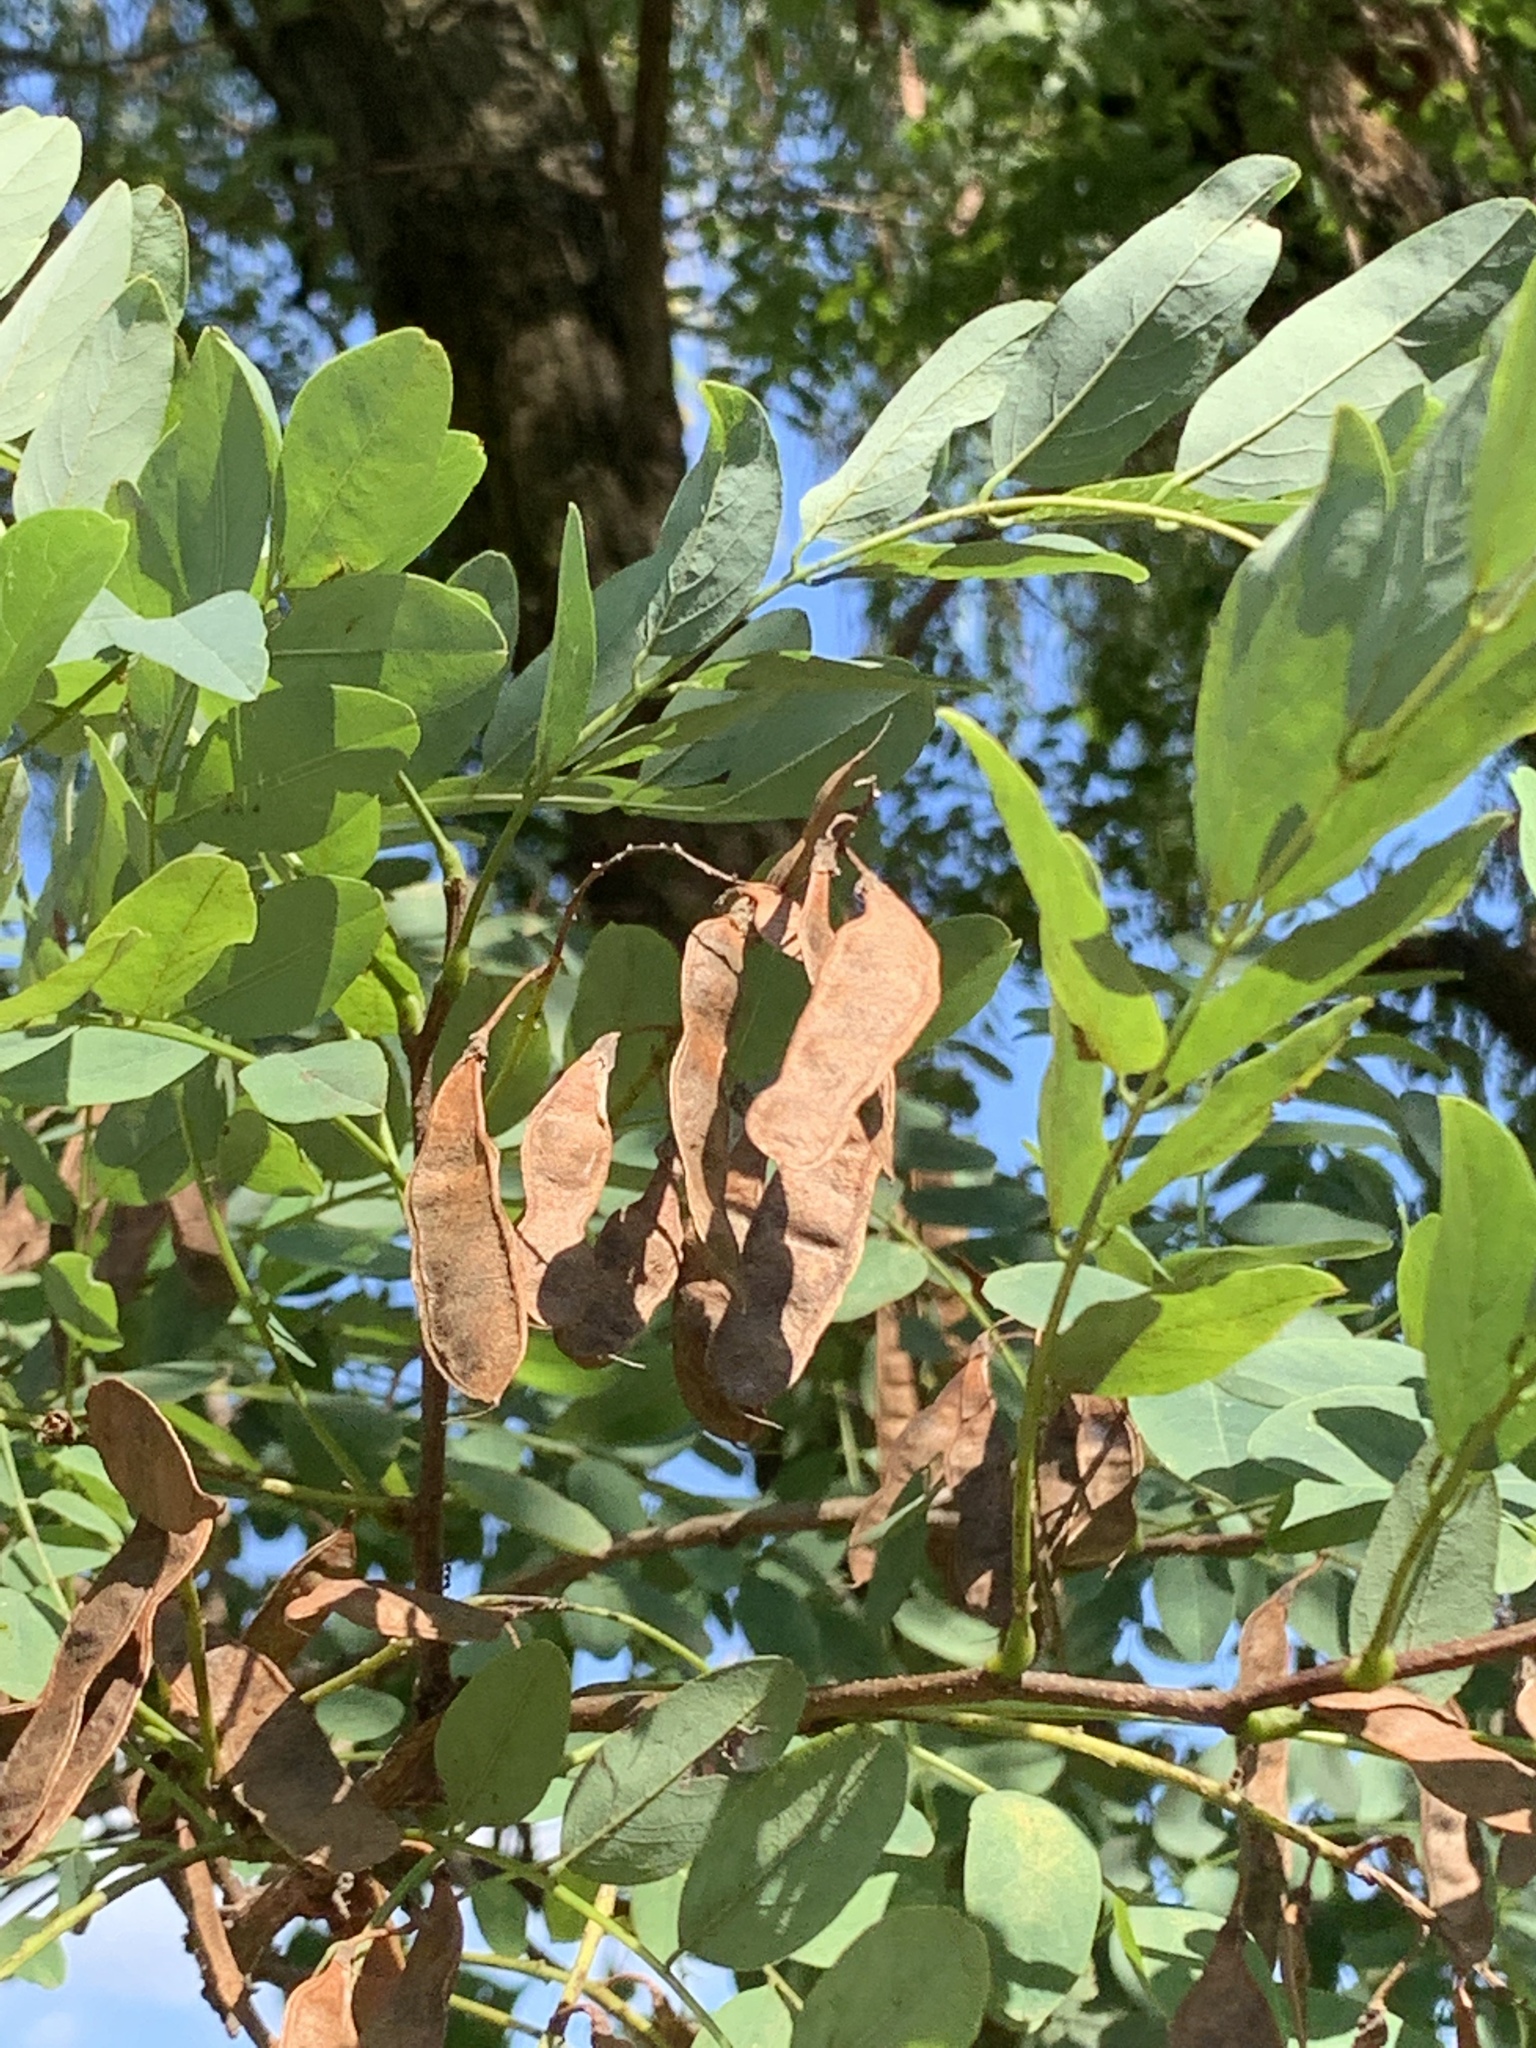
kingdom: Plantae
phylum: Tracheophyta
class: Magnoliopsida
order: Fabales
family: Fabaceae
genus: Robinia
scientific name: Robinia pseudoacacia
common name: Black locust
